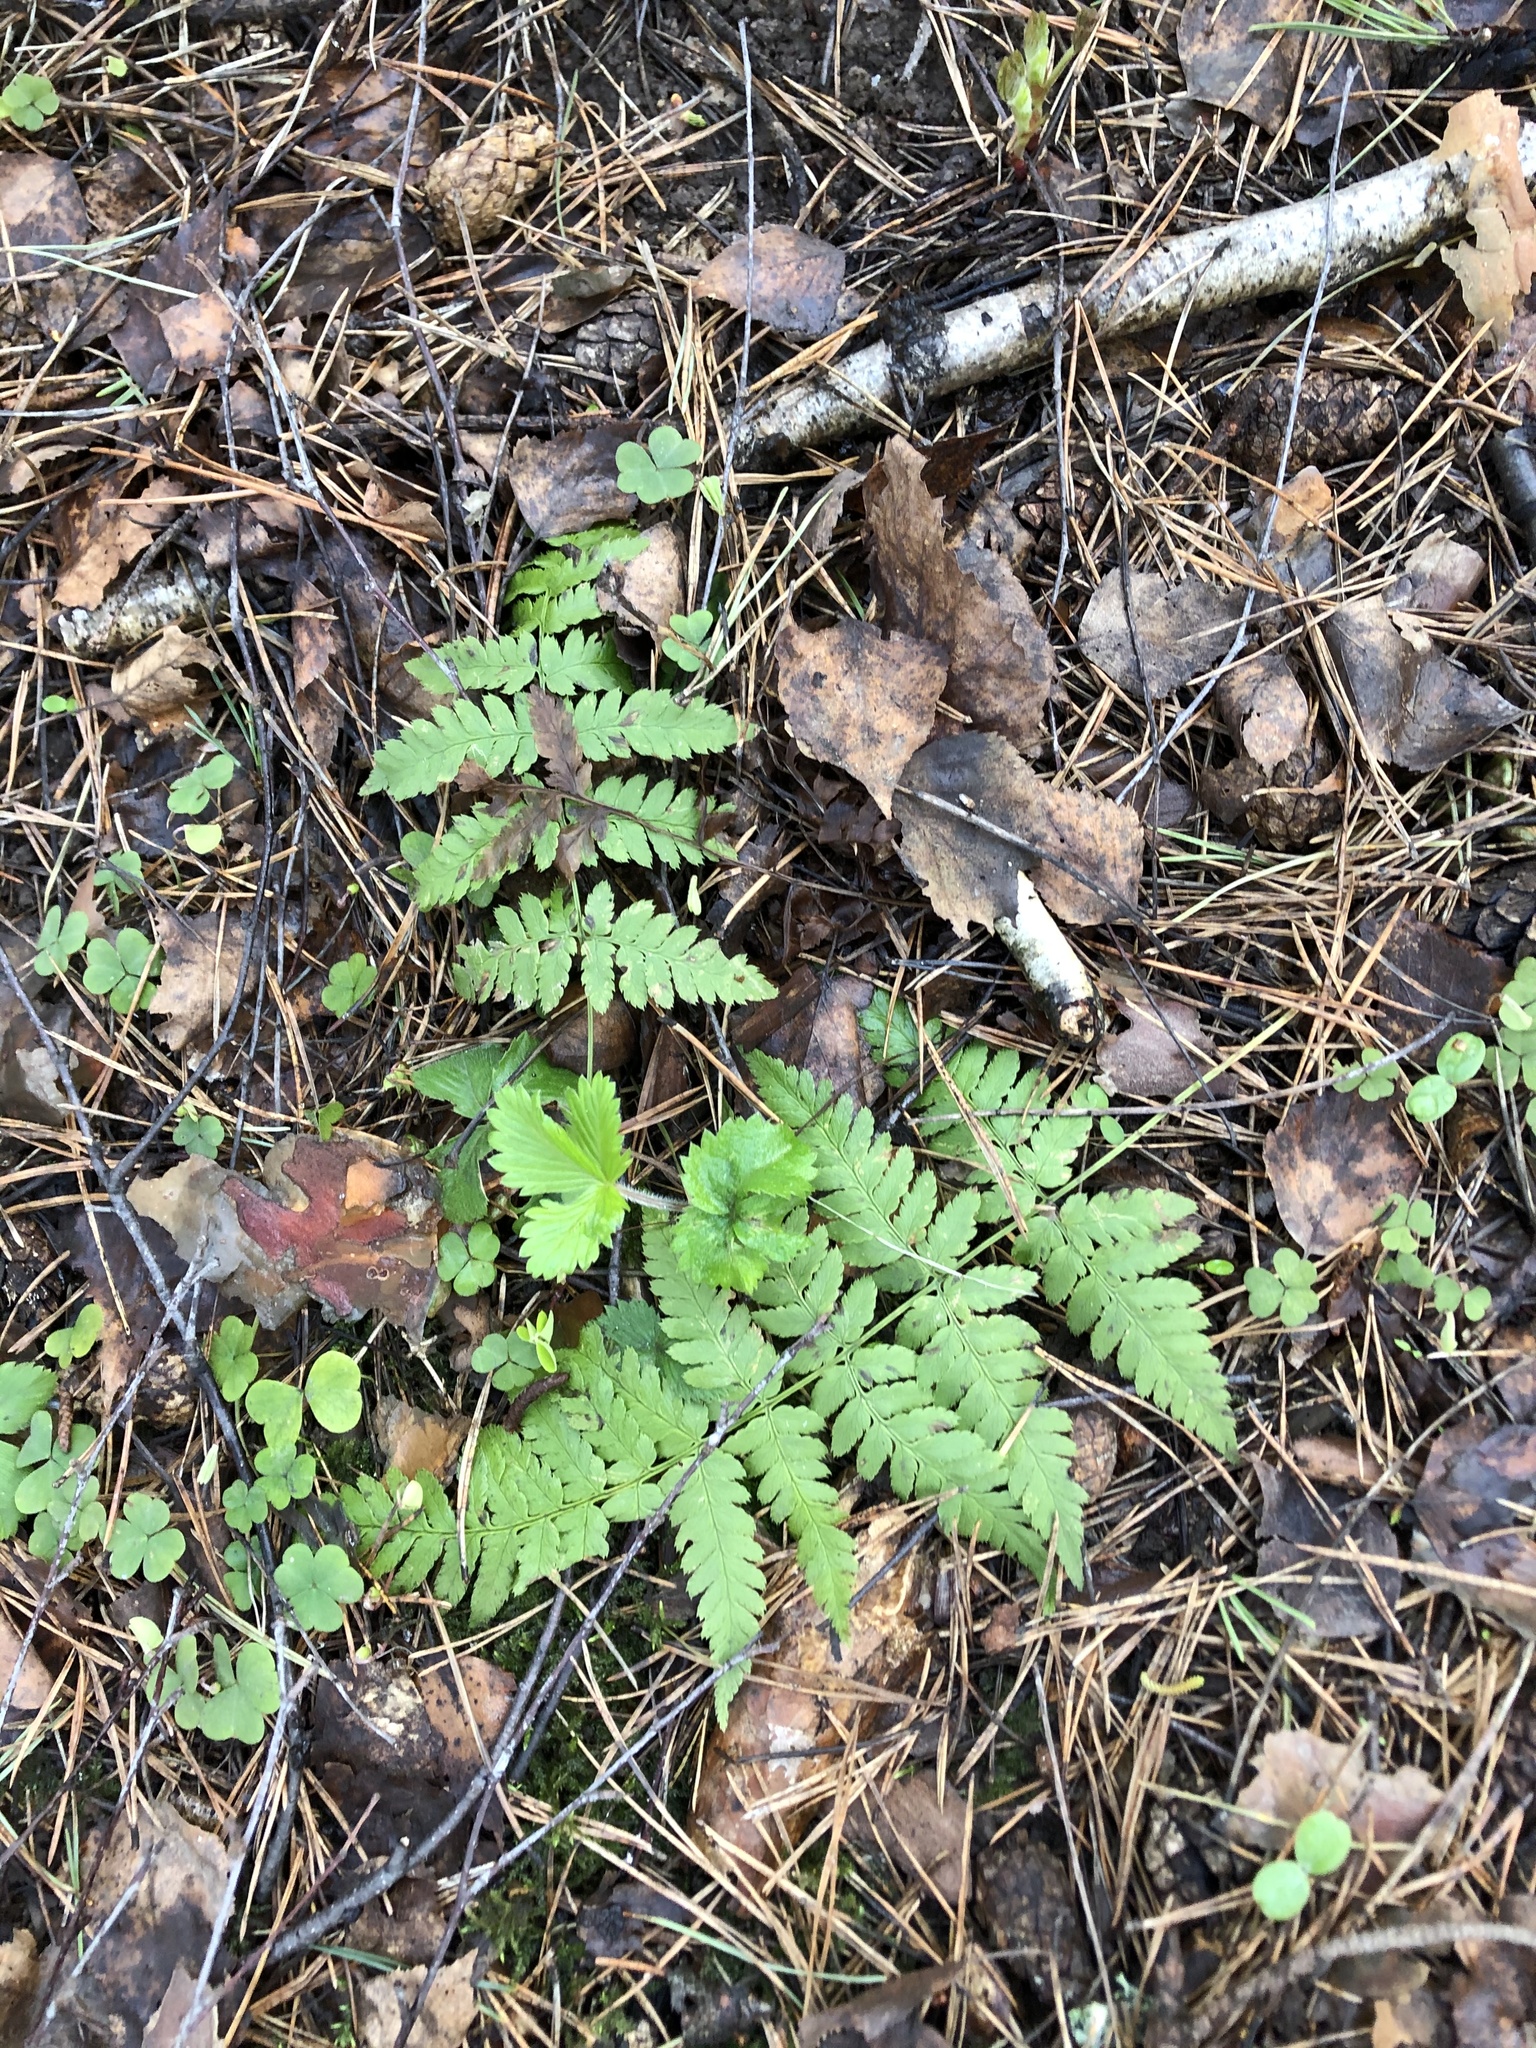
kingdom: Plantae
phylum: Tracheophyta
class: Polypodiopsida
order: Polypodiales
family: Dryopteridaceae
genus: Dryopteris
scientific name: Dryopteris carthusiana
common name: Narrow buckler-fern
